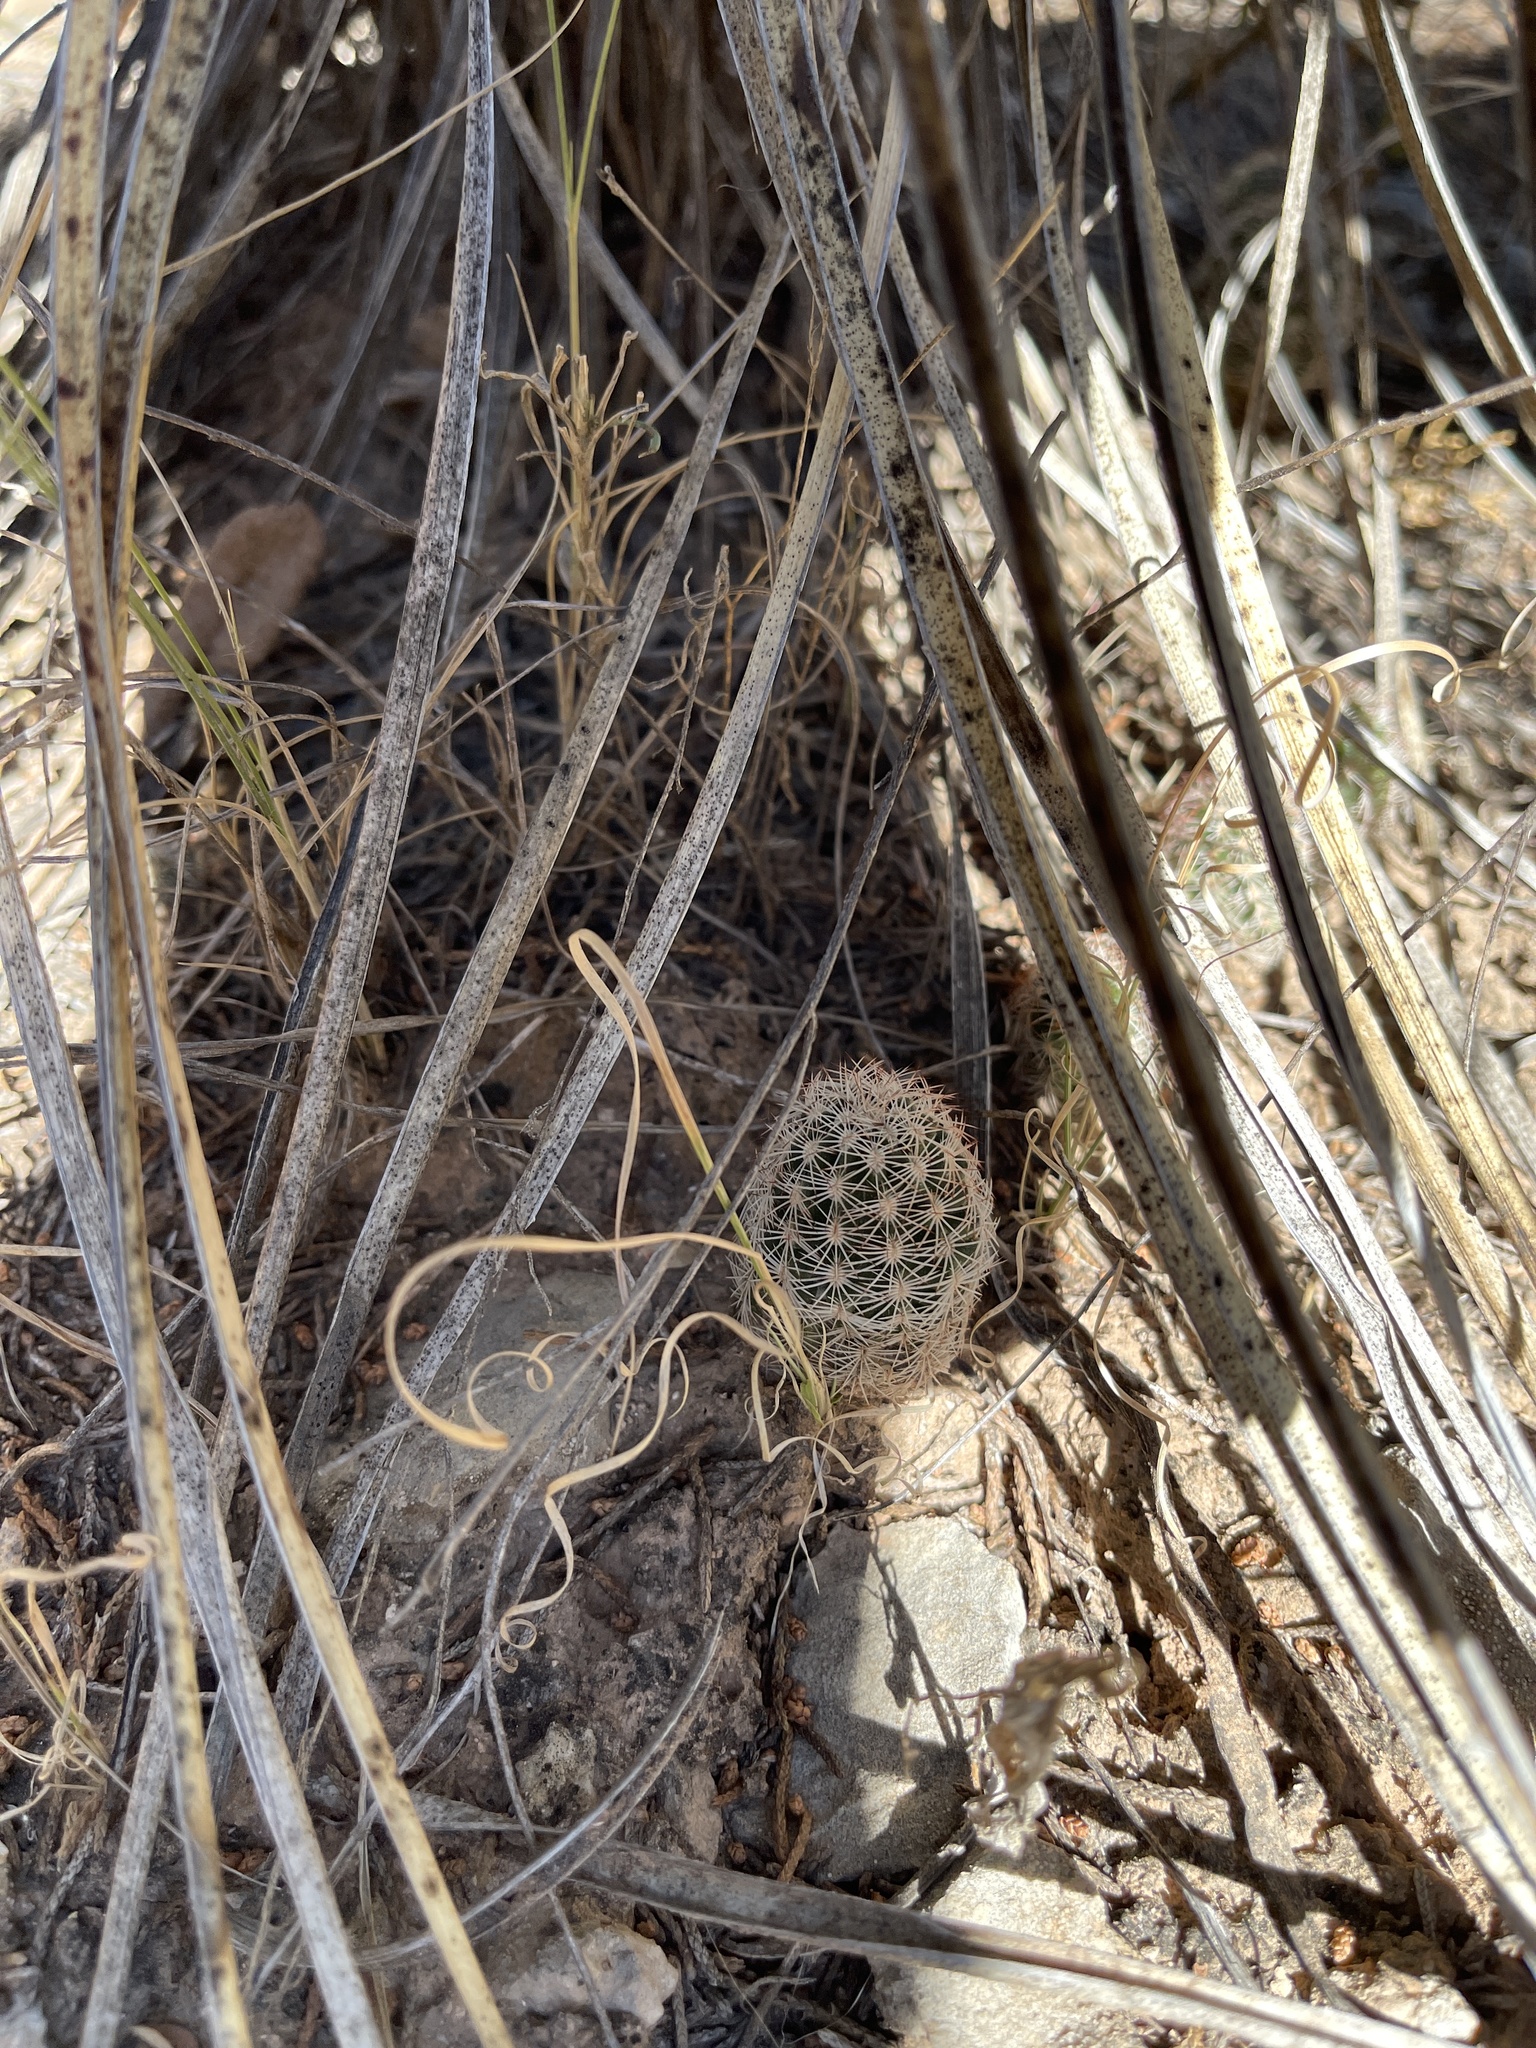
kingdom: Plantae
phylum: Tracheophyta
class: Magnoliopsida
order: Caryophyllales
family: Cactaceae
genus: Echinocereus
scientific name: Echinocereus reichenbachii
